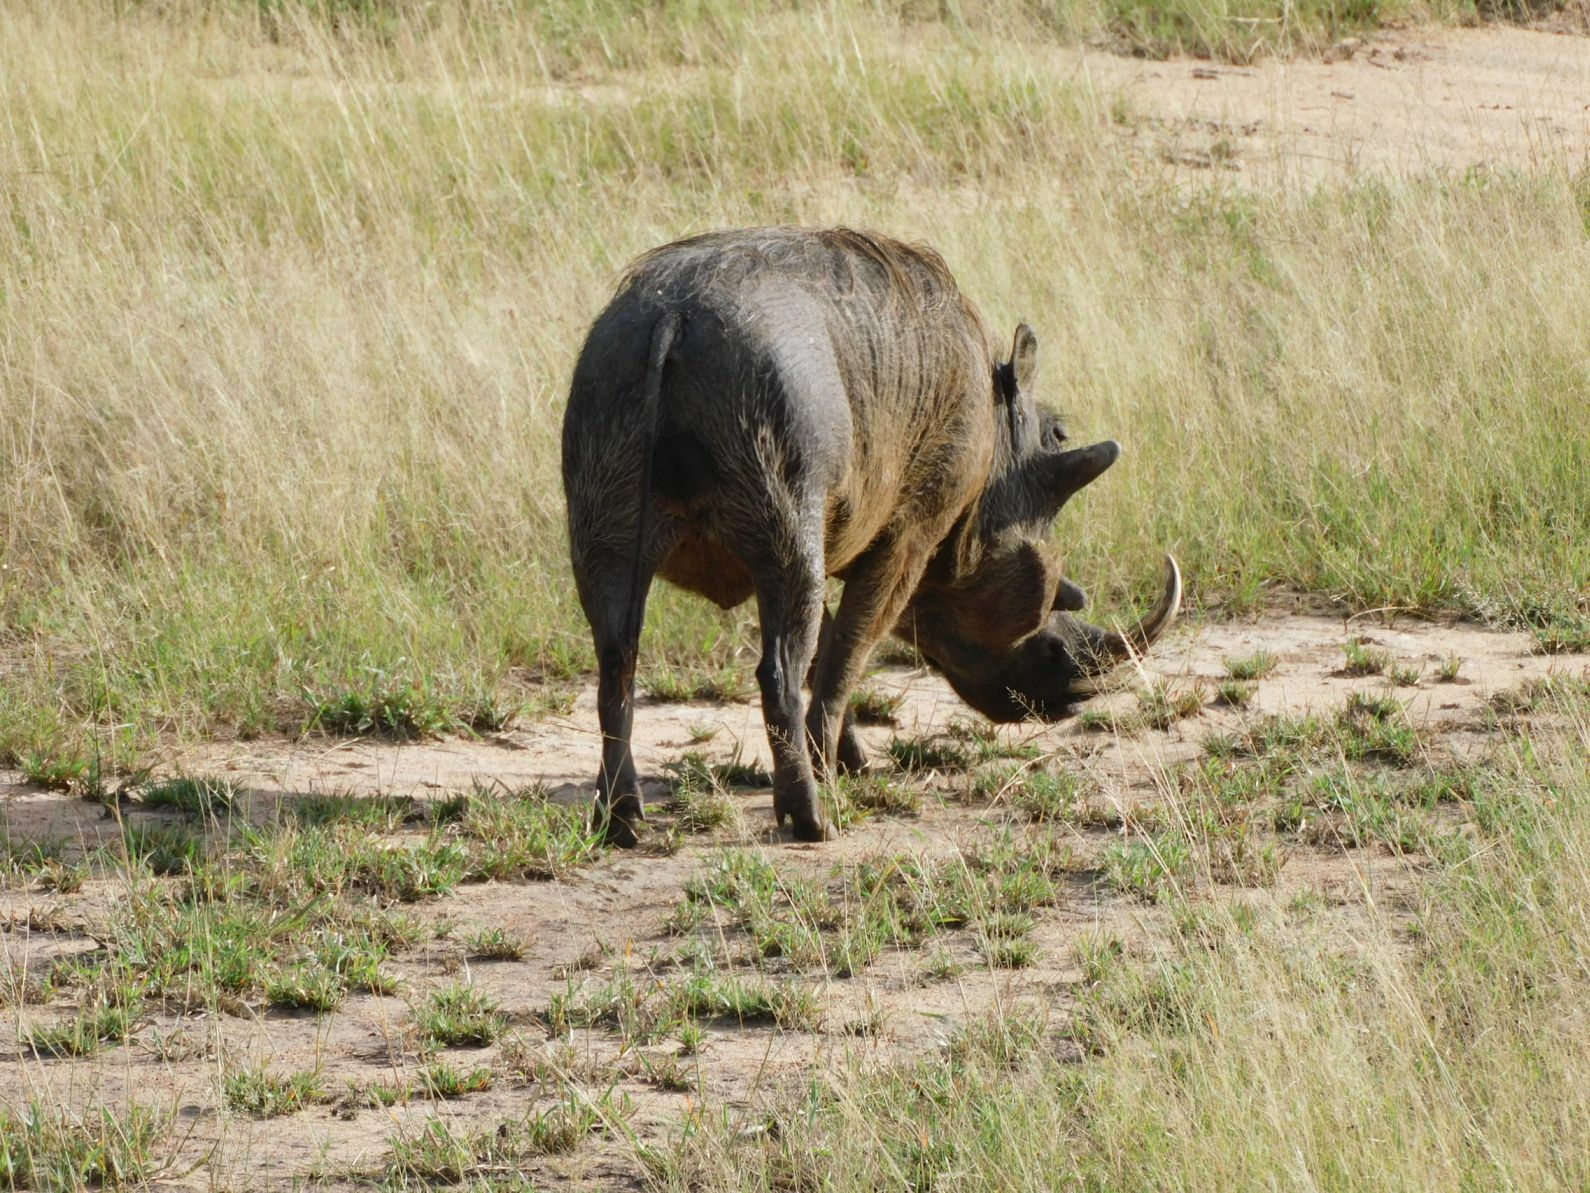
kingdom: Animalia
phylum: Chordata
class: Mammalia
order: Artiodactyla
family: Suidae
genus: Phacochoerus
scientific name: Phacochoerus africanus
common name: Common warthog
